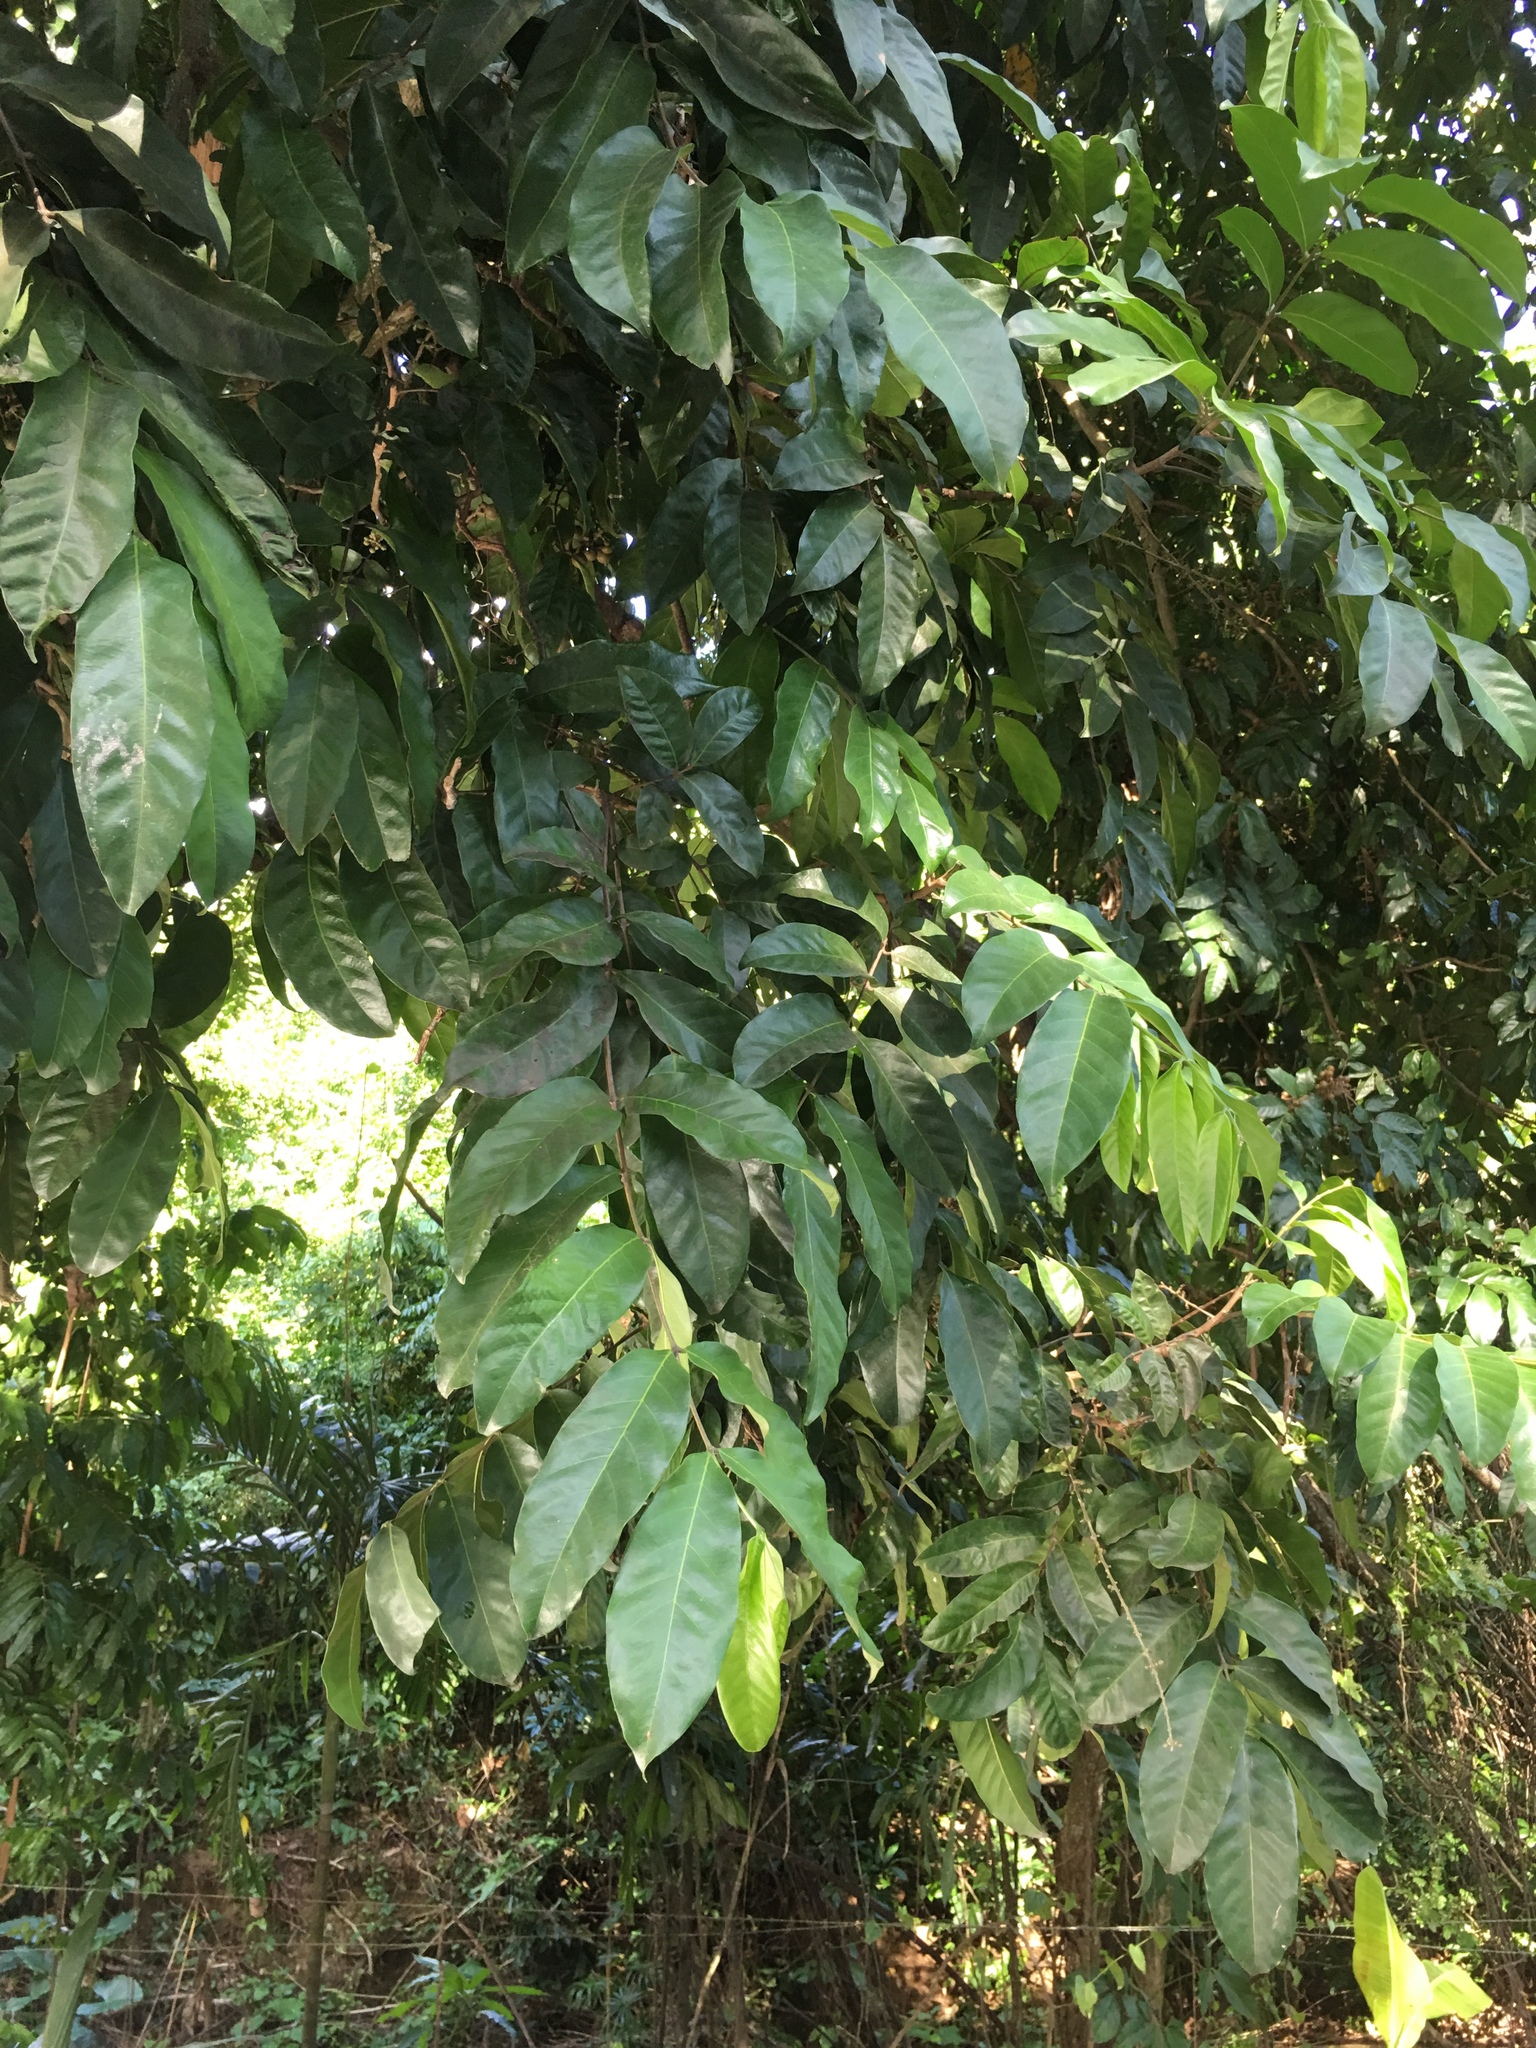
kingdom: Plantae
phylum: Tracheophyta
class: Magnoliopsida
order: Sapindales
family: Meliaceae
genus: Guarea
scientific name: Guarea guidonia
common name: American muskwood
